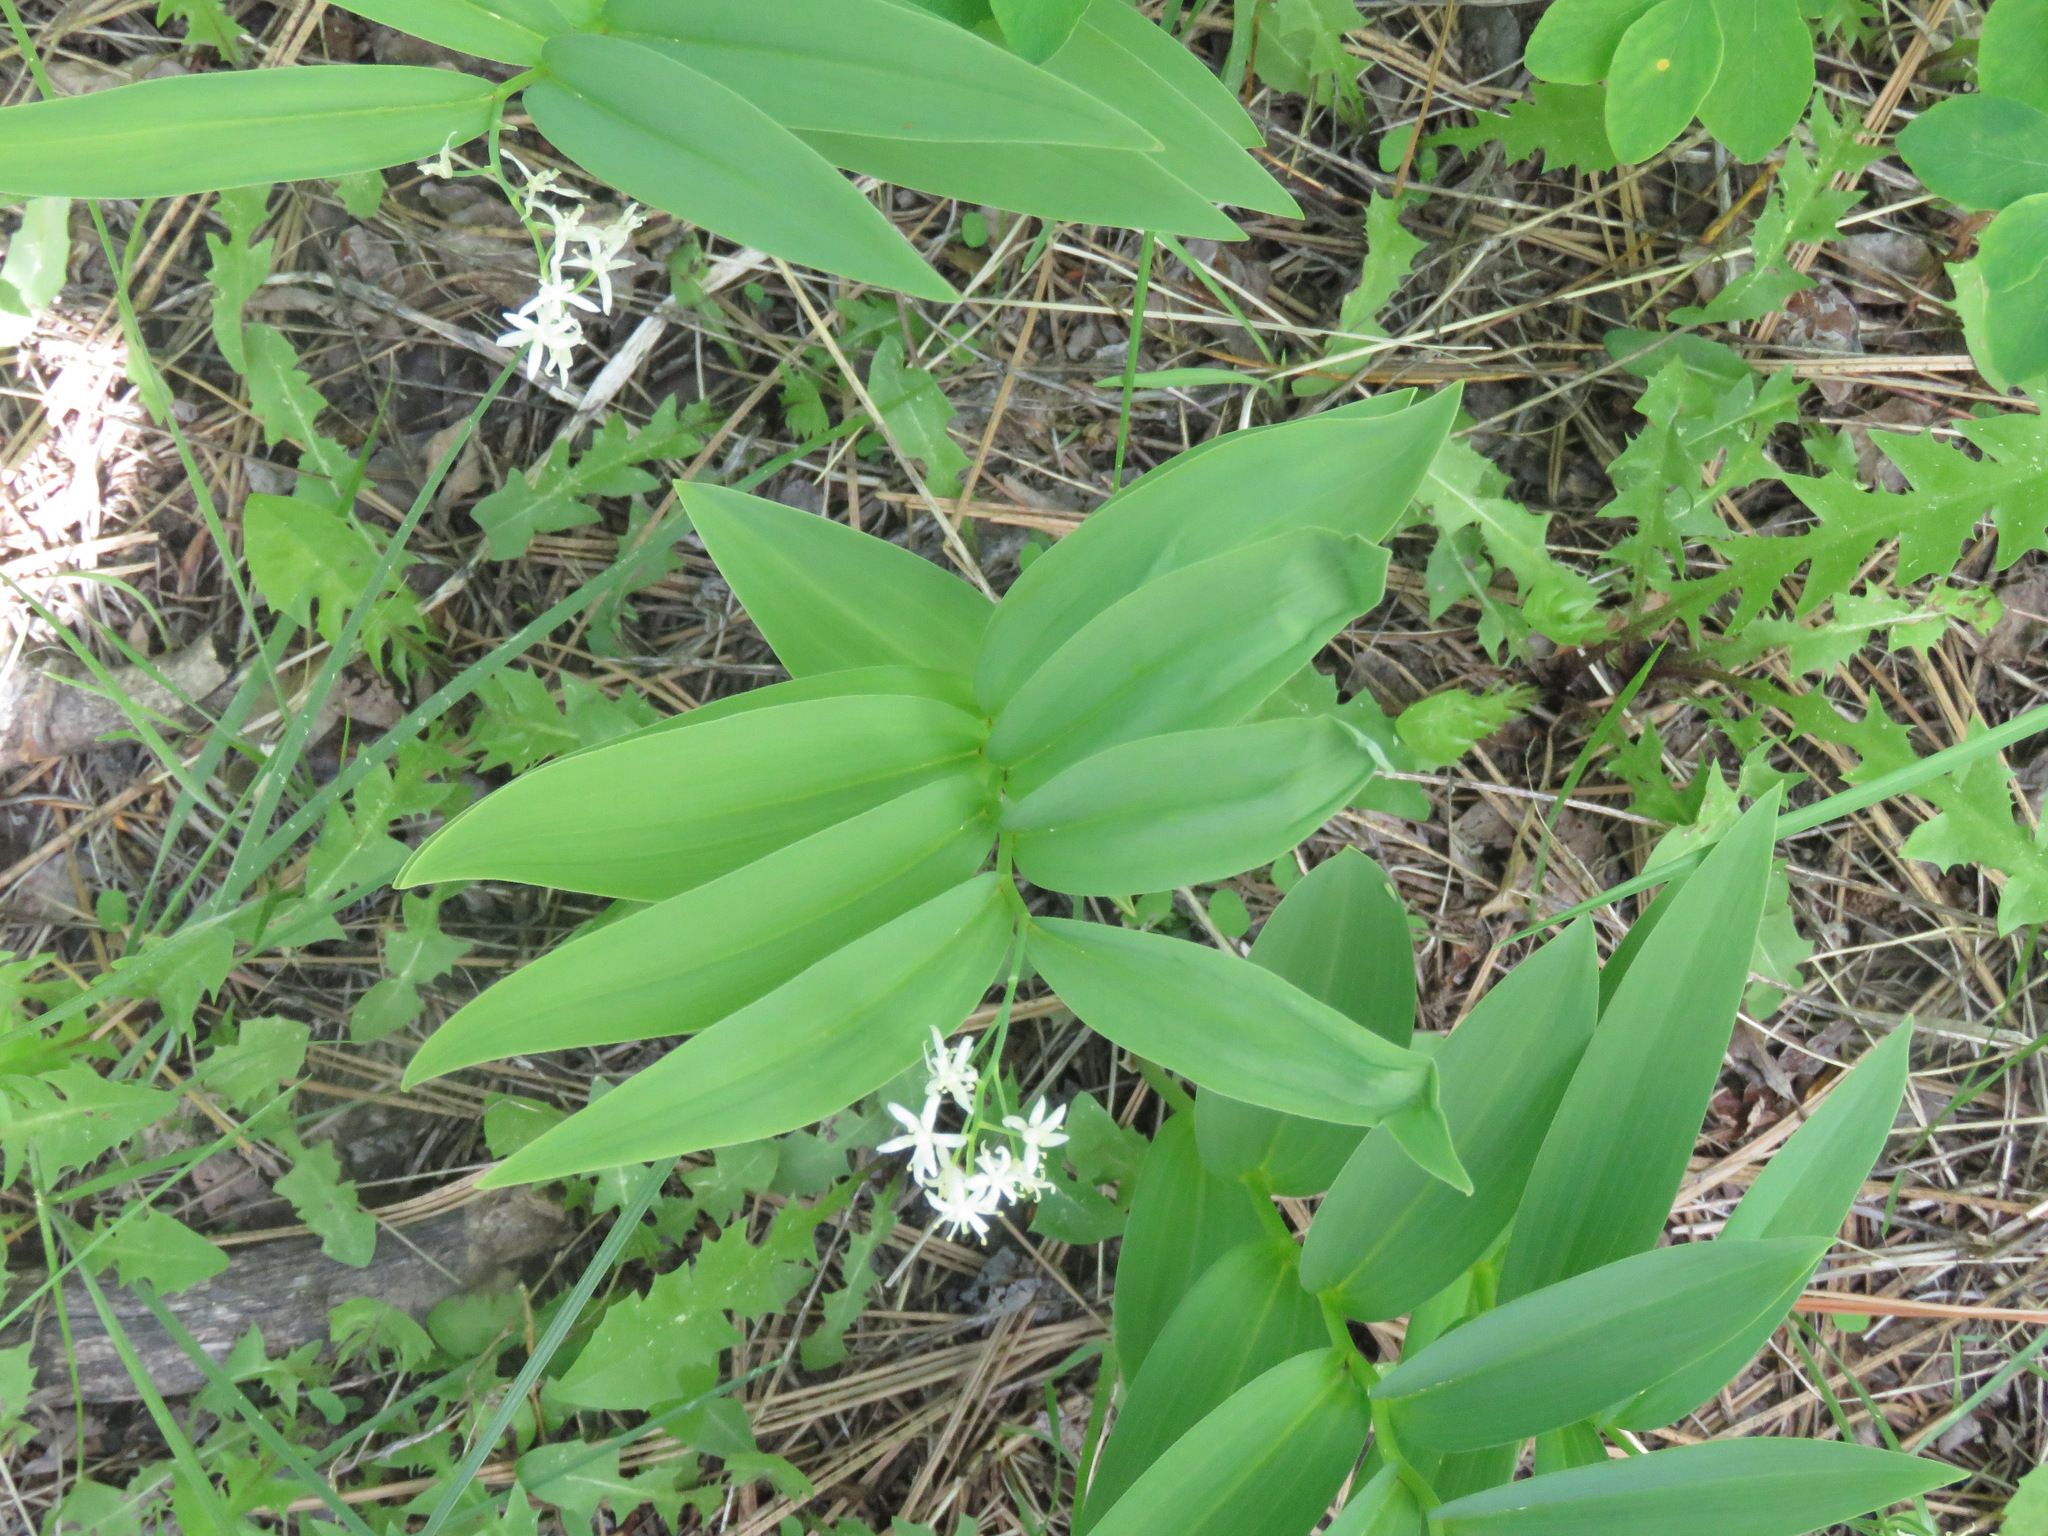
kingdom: Plantae
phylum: Tracheophyta
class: Liliopsida
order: Asparagales
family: Asparagaceae
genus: Maianthemum
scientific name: Maianthemum stellatum
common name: Little false solomon's seal
